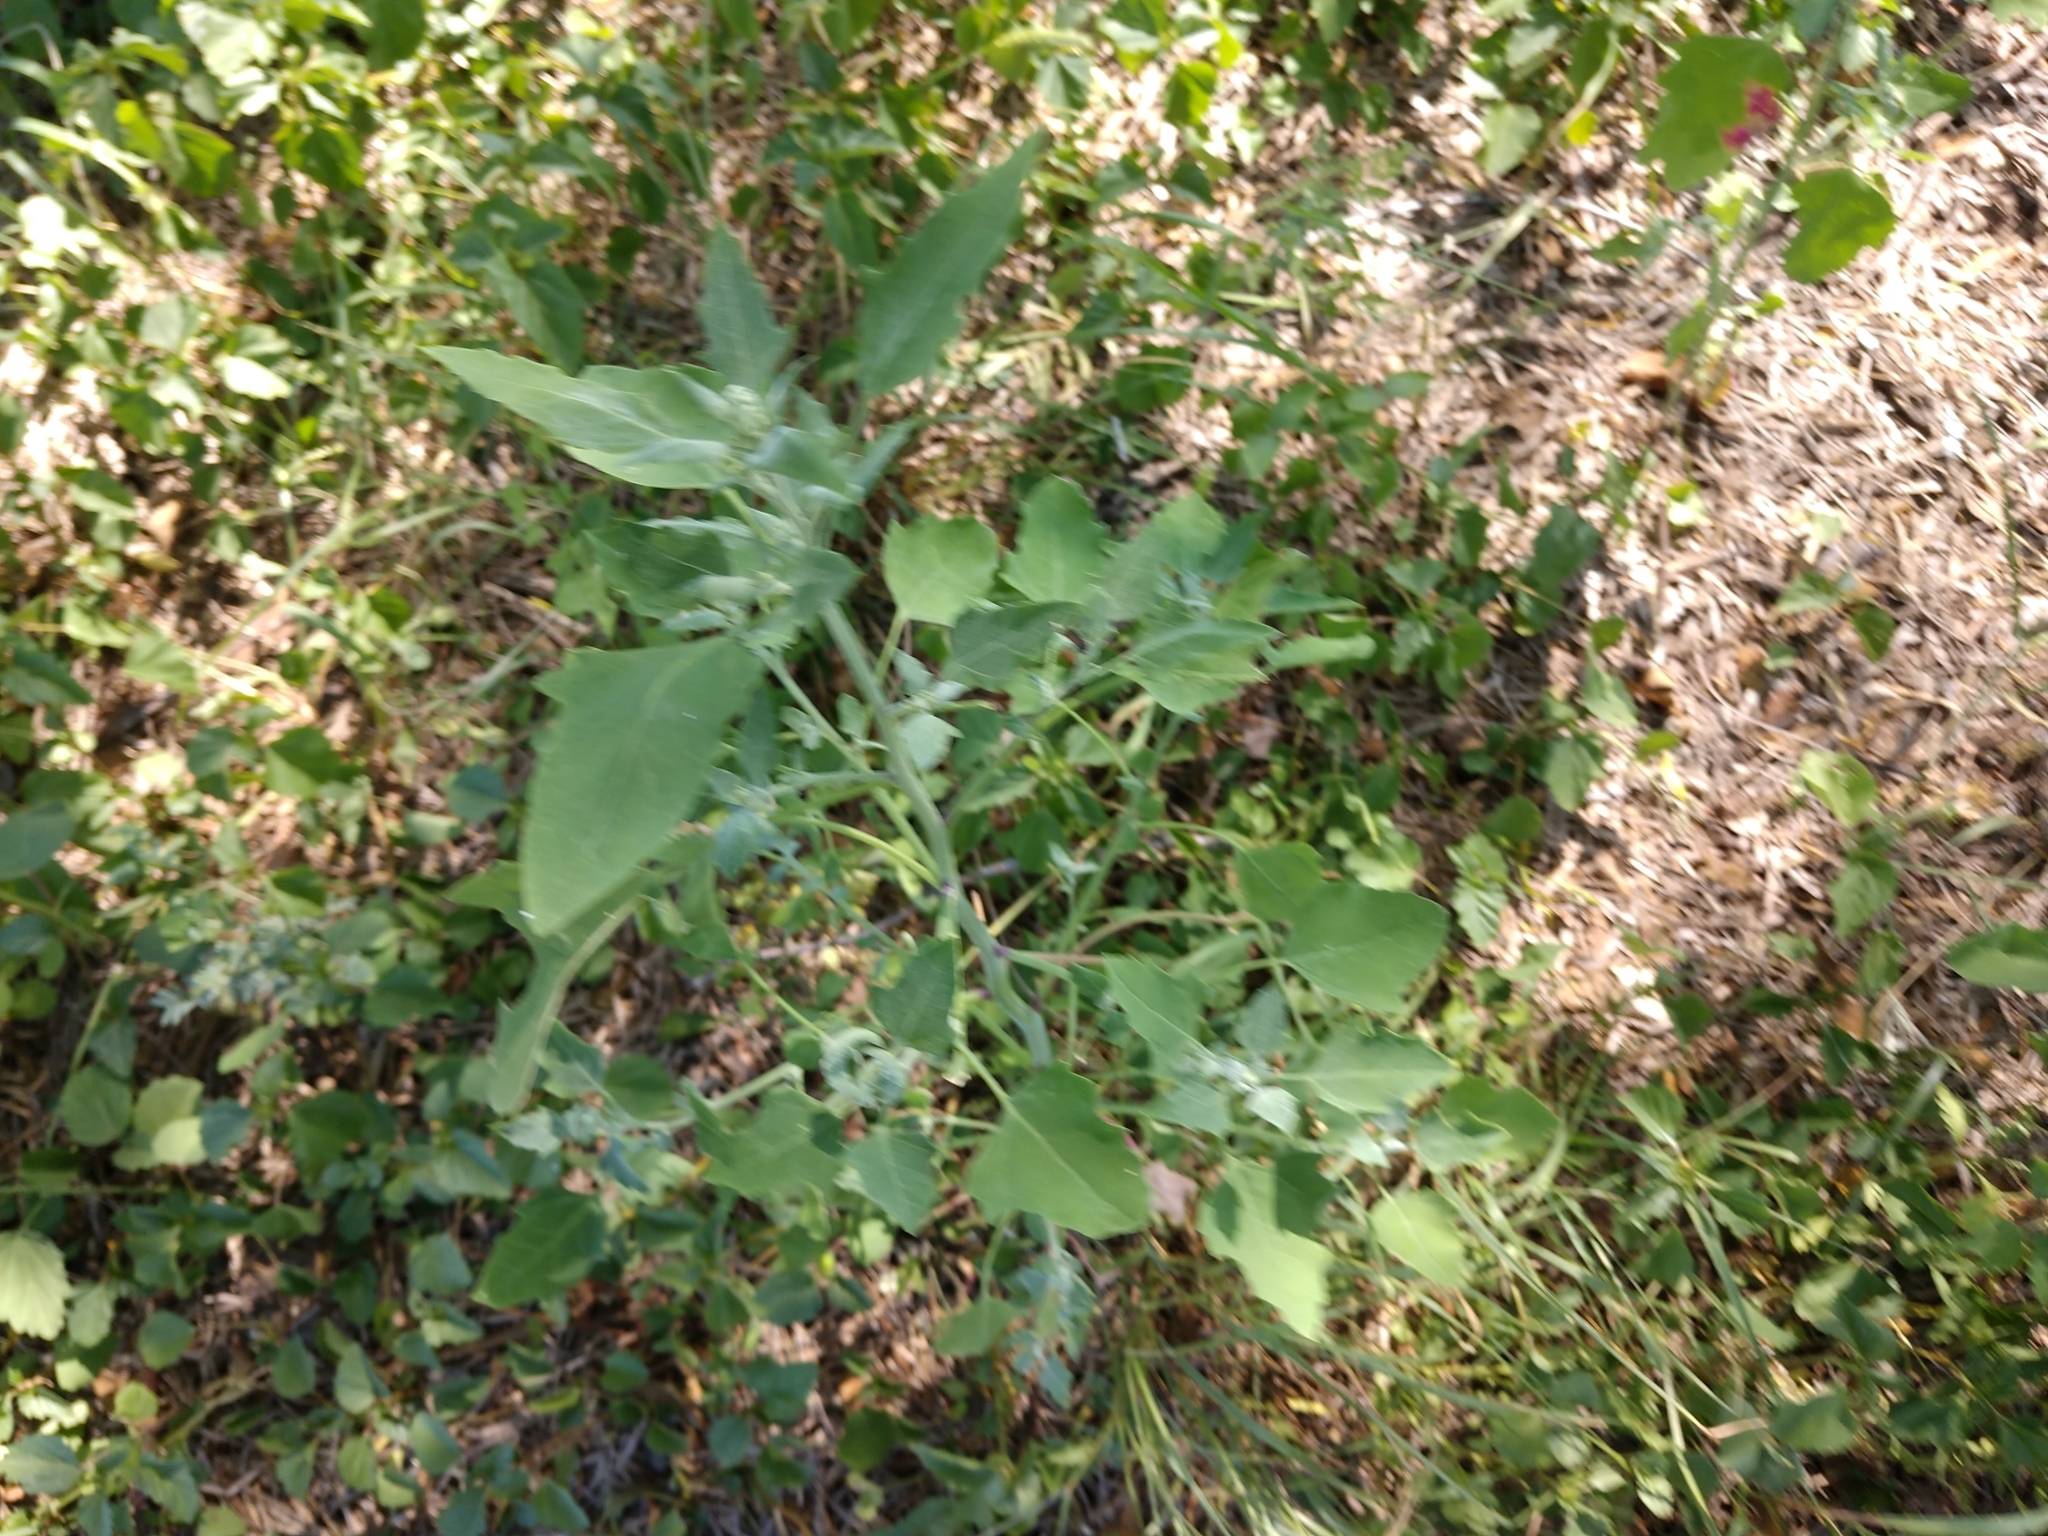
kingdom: Plantae
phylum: Tracheophyta
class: Magnoliopsida
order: Caryophyllales
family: Amaranthaceae
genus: Chenopodium
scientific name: Chenopodium album
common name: Fat-hen
